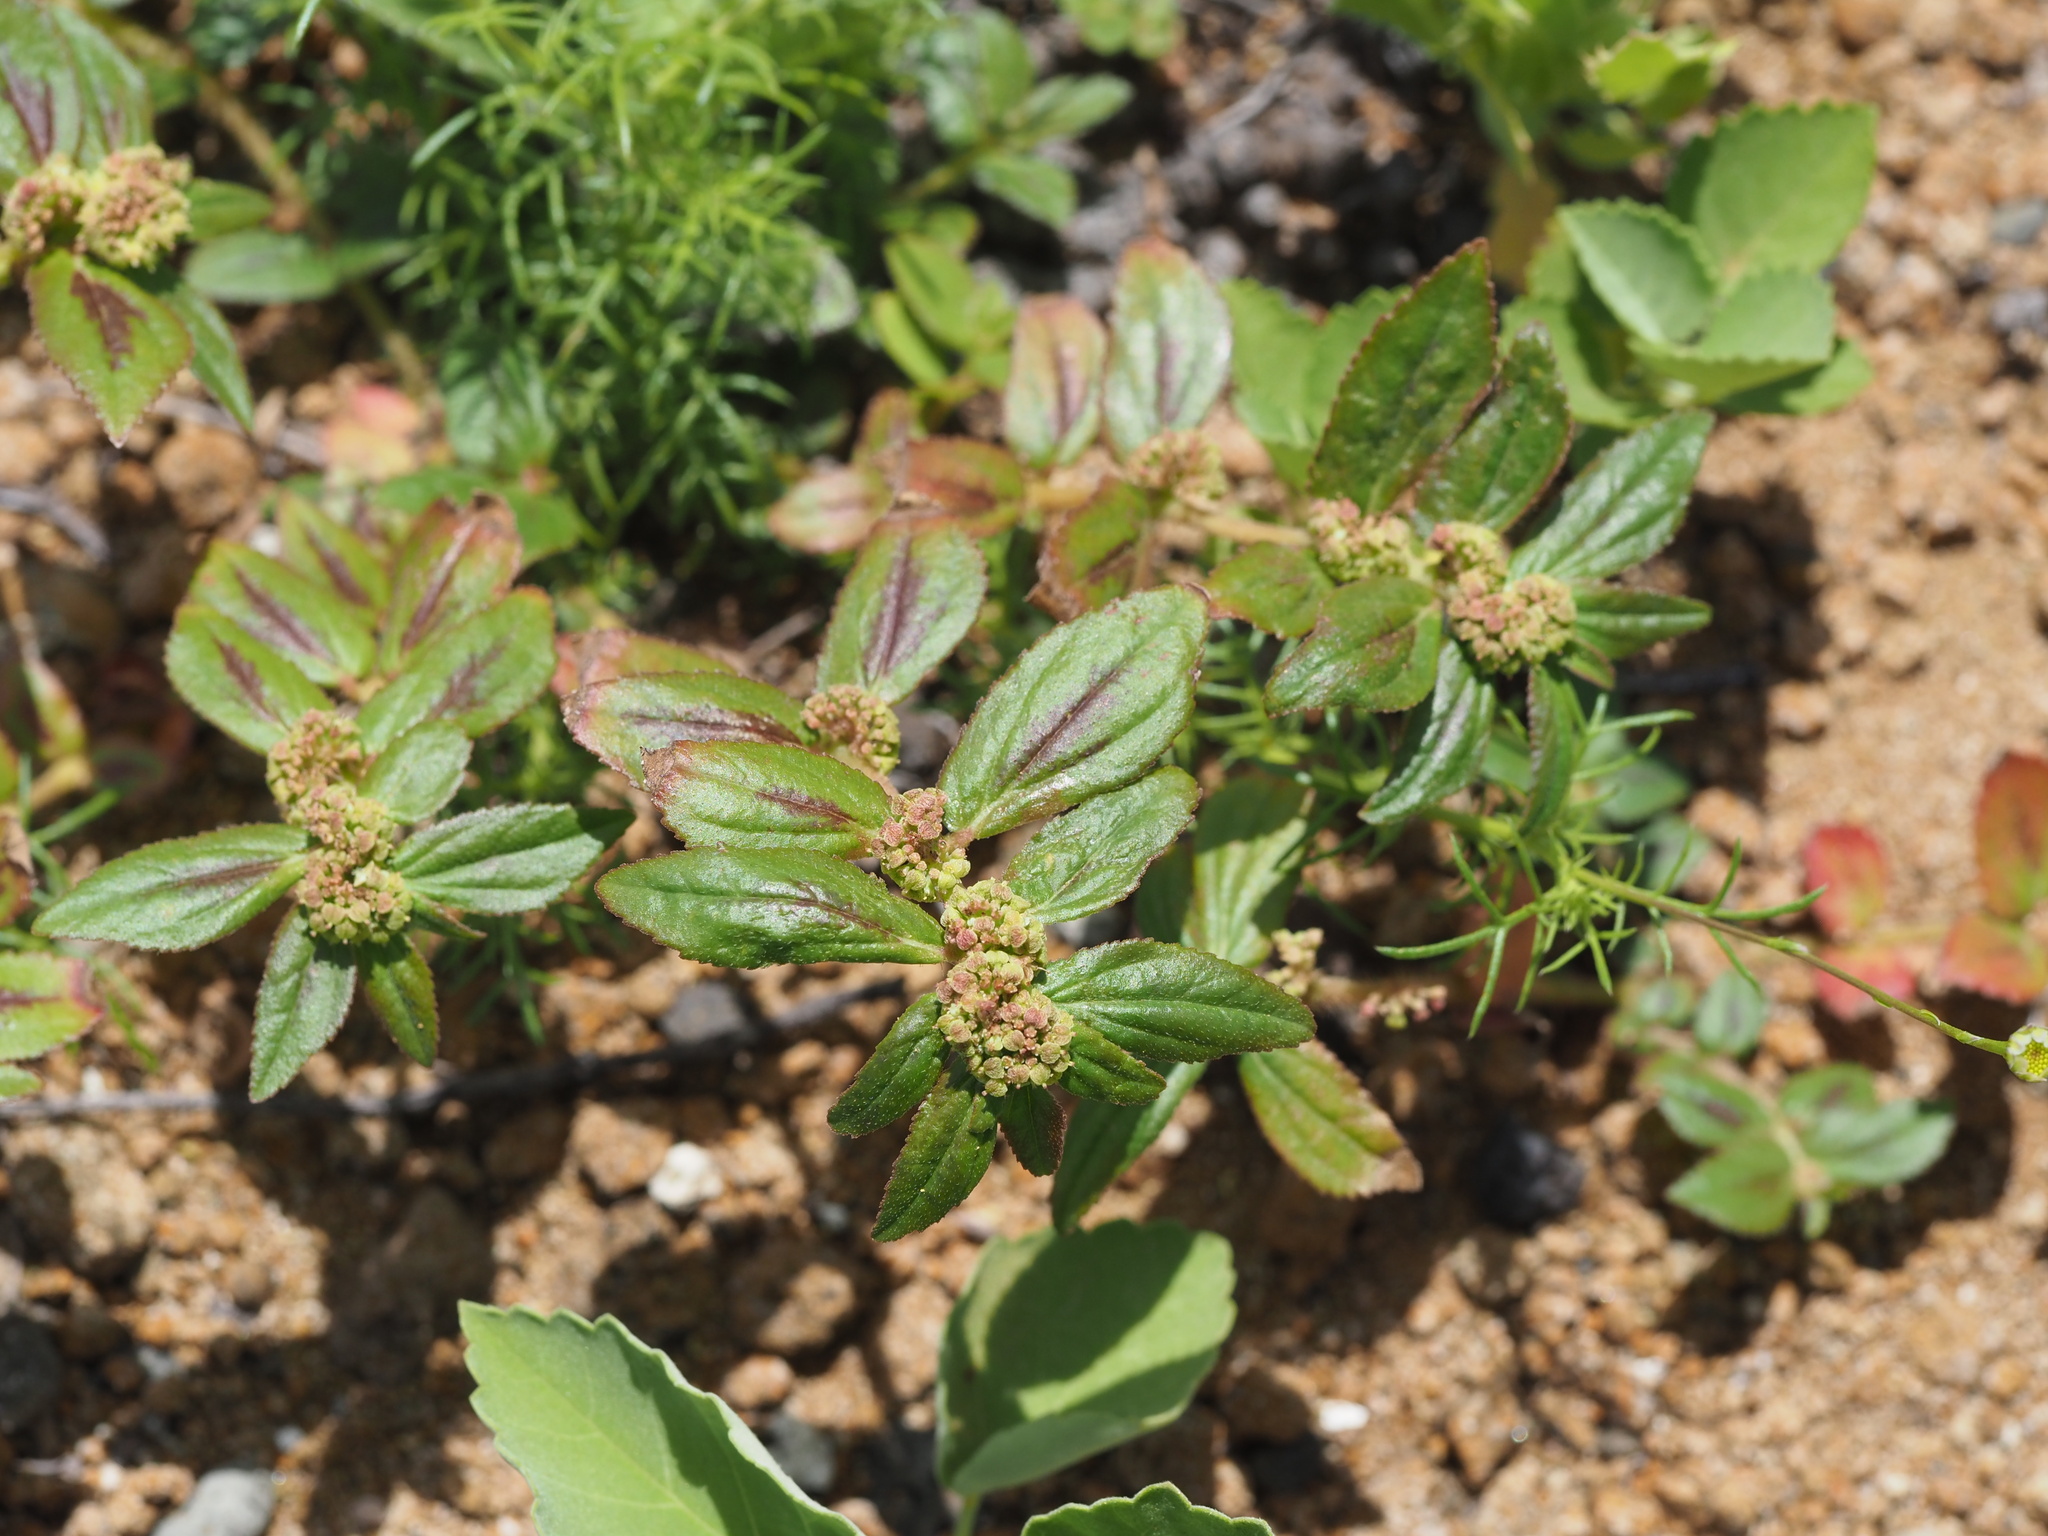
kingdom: Plantae
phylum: Tracheophyta
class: Magnoliopsida
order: Malpighiales
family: Euphorbiaceae
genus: Euphorbia
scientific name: Euphorbia hirta
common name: Pillpod sandmat
